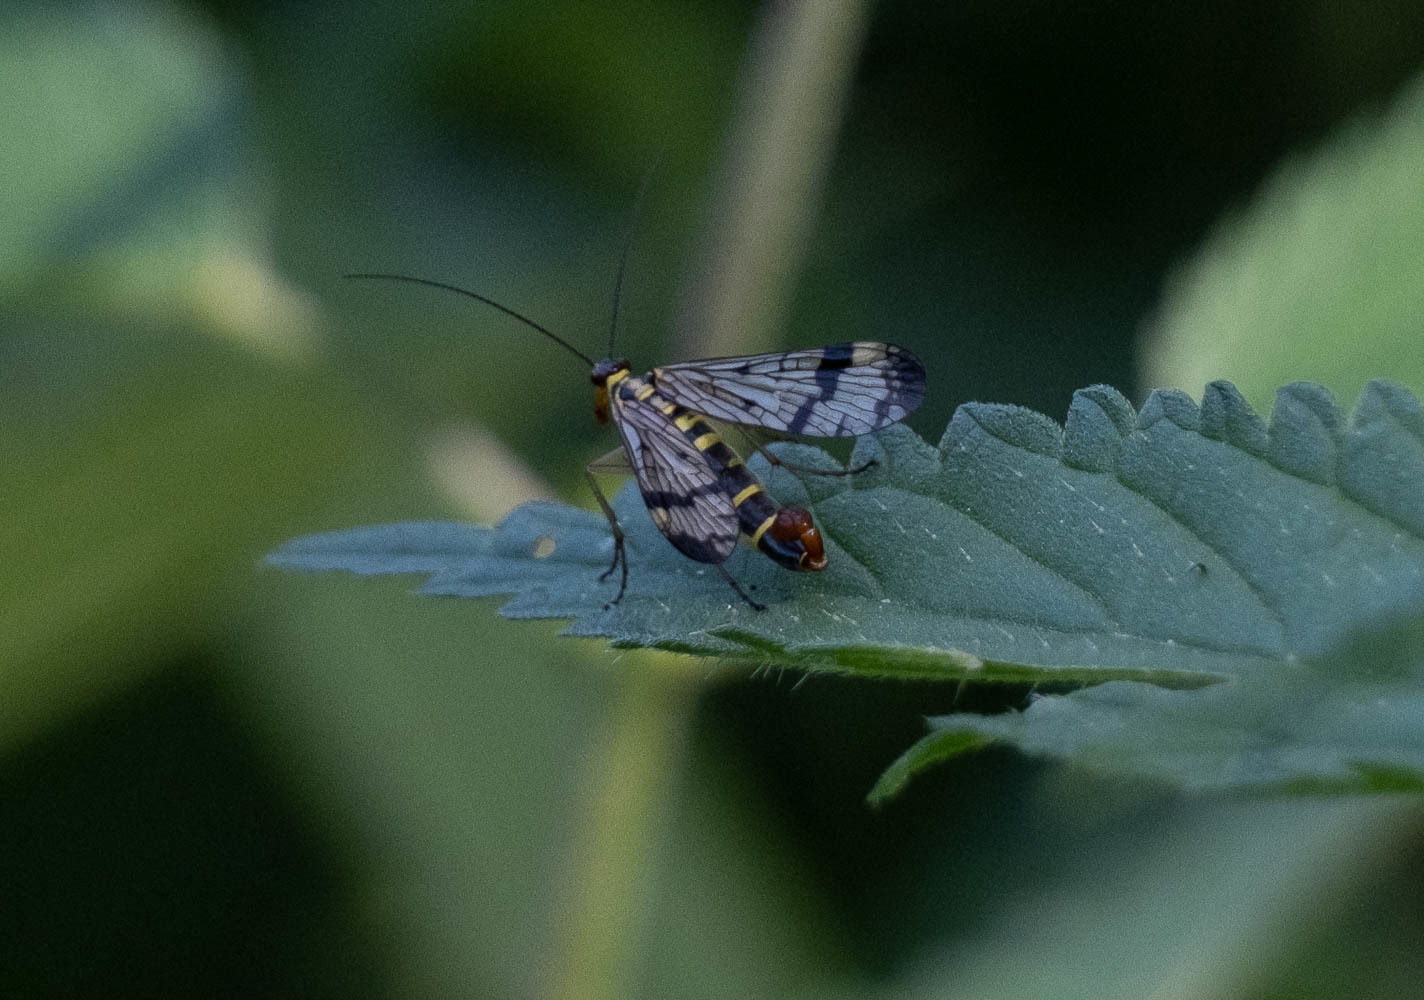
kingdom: Animalia
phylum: Arthropoda
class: Insecta
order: Mecoptera
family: Panorpidae
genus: Panorpa
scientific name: Panorpa communis
